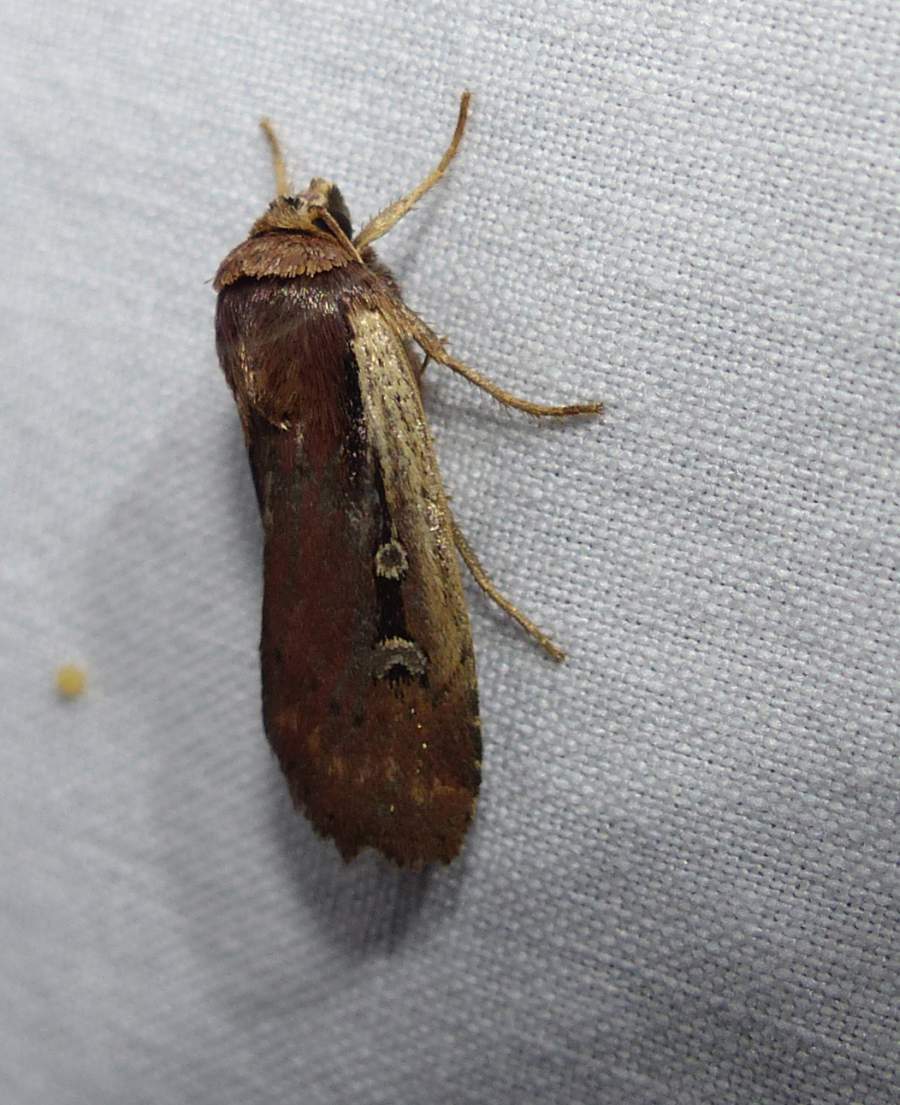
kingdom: Animalia
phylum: Arthropoda
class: Insecta
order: Lepidoptera
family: Noctuidae
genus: Ochropleura
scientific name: Ochropleura implecta
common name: Flame-shouldered dart
